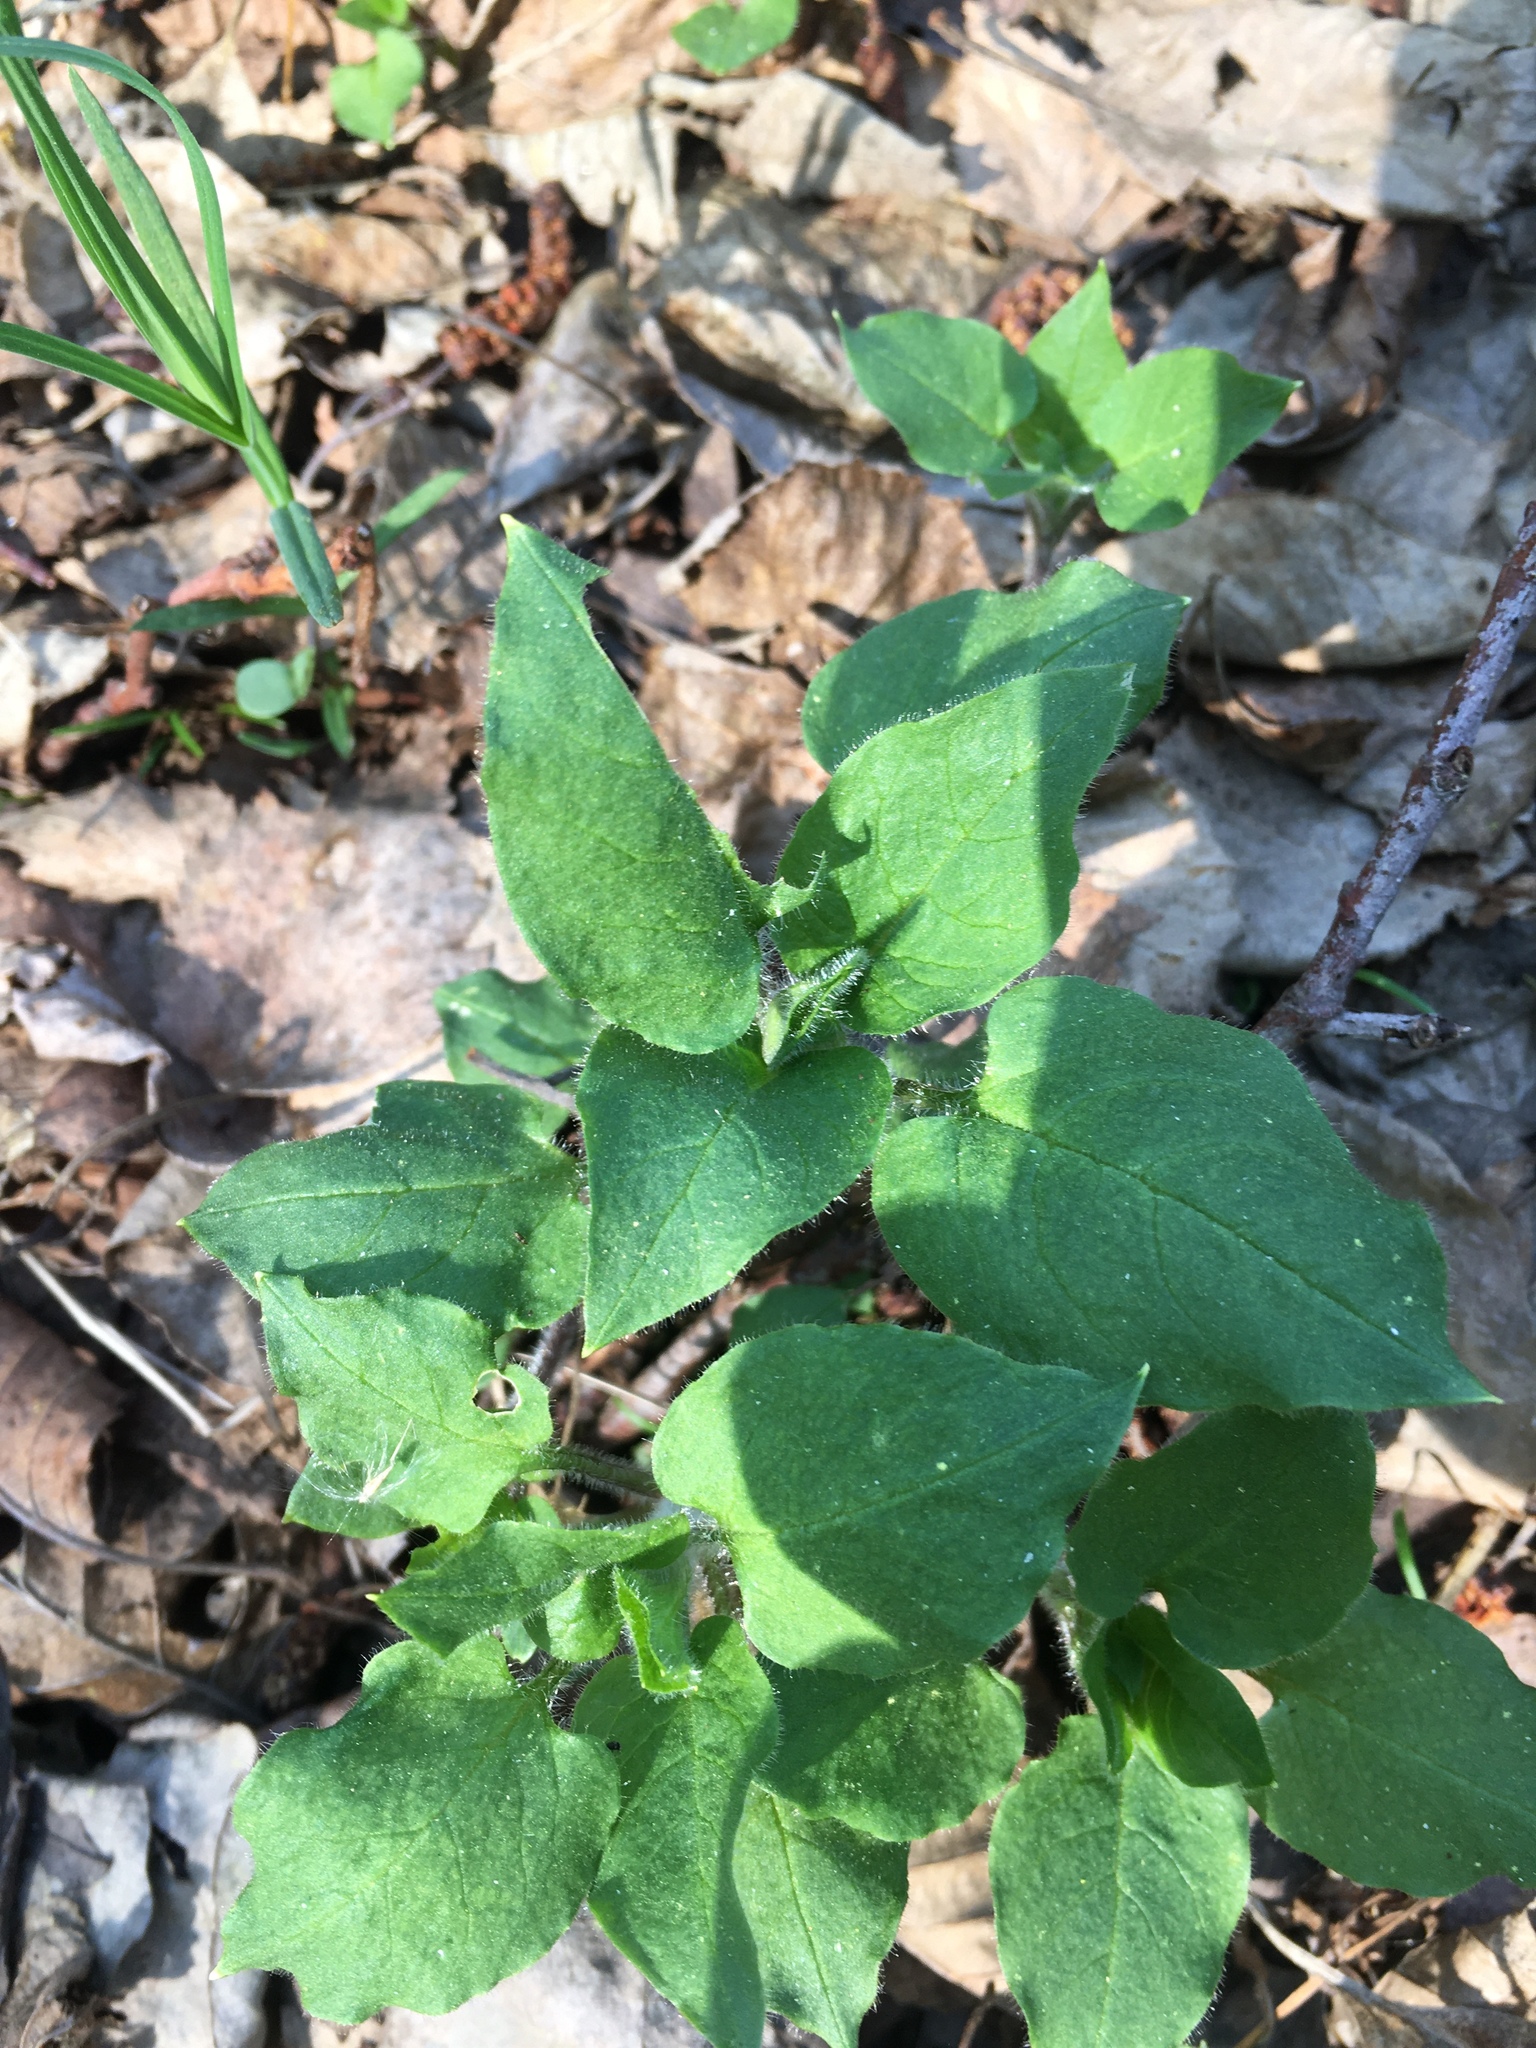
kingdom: Plantae
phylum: Tracheophyta
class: Magnoliopsida
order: Caryophyllales
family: Caryophyllaceae
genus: Stellaria
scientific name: Stellaria nemorum
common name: Wood stitchwort
